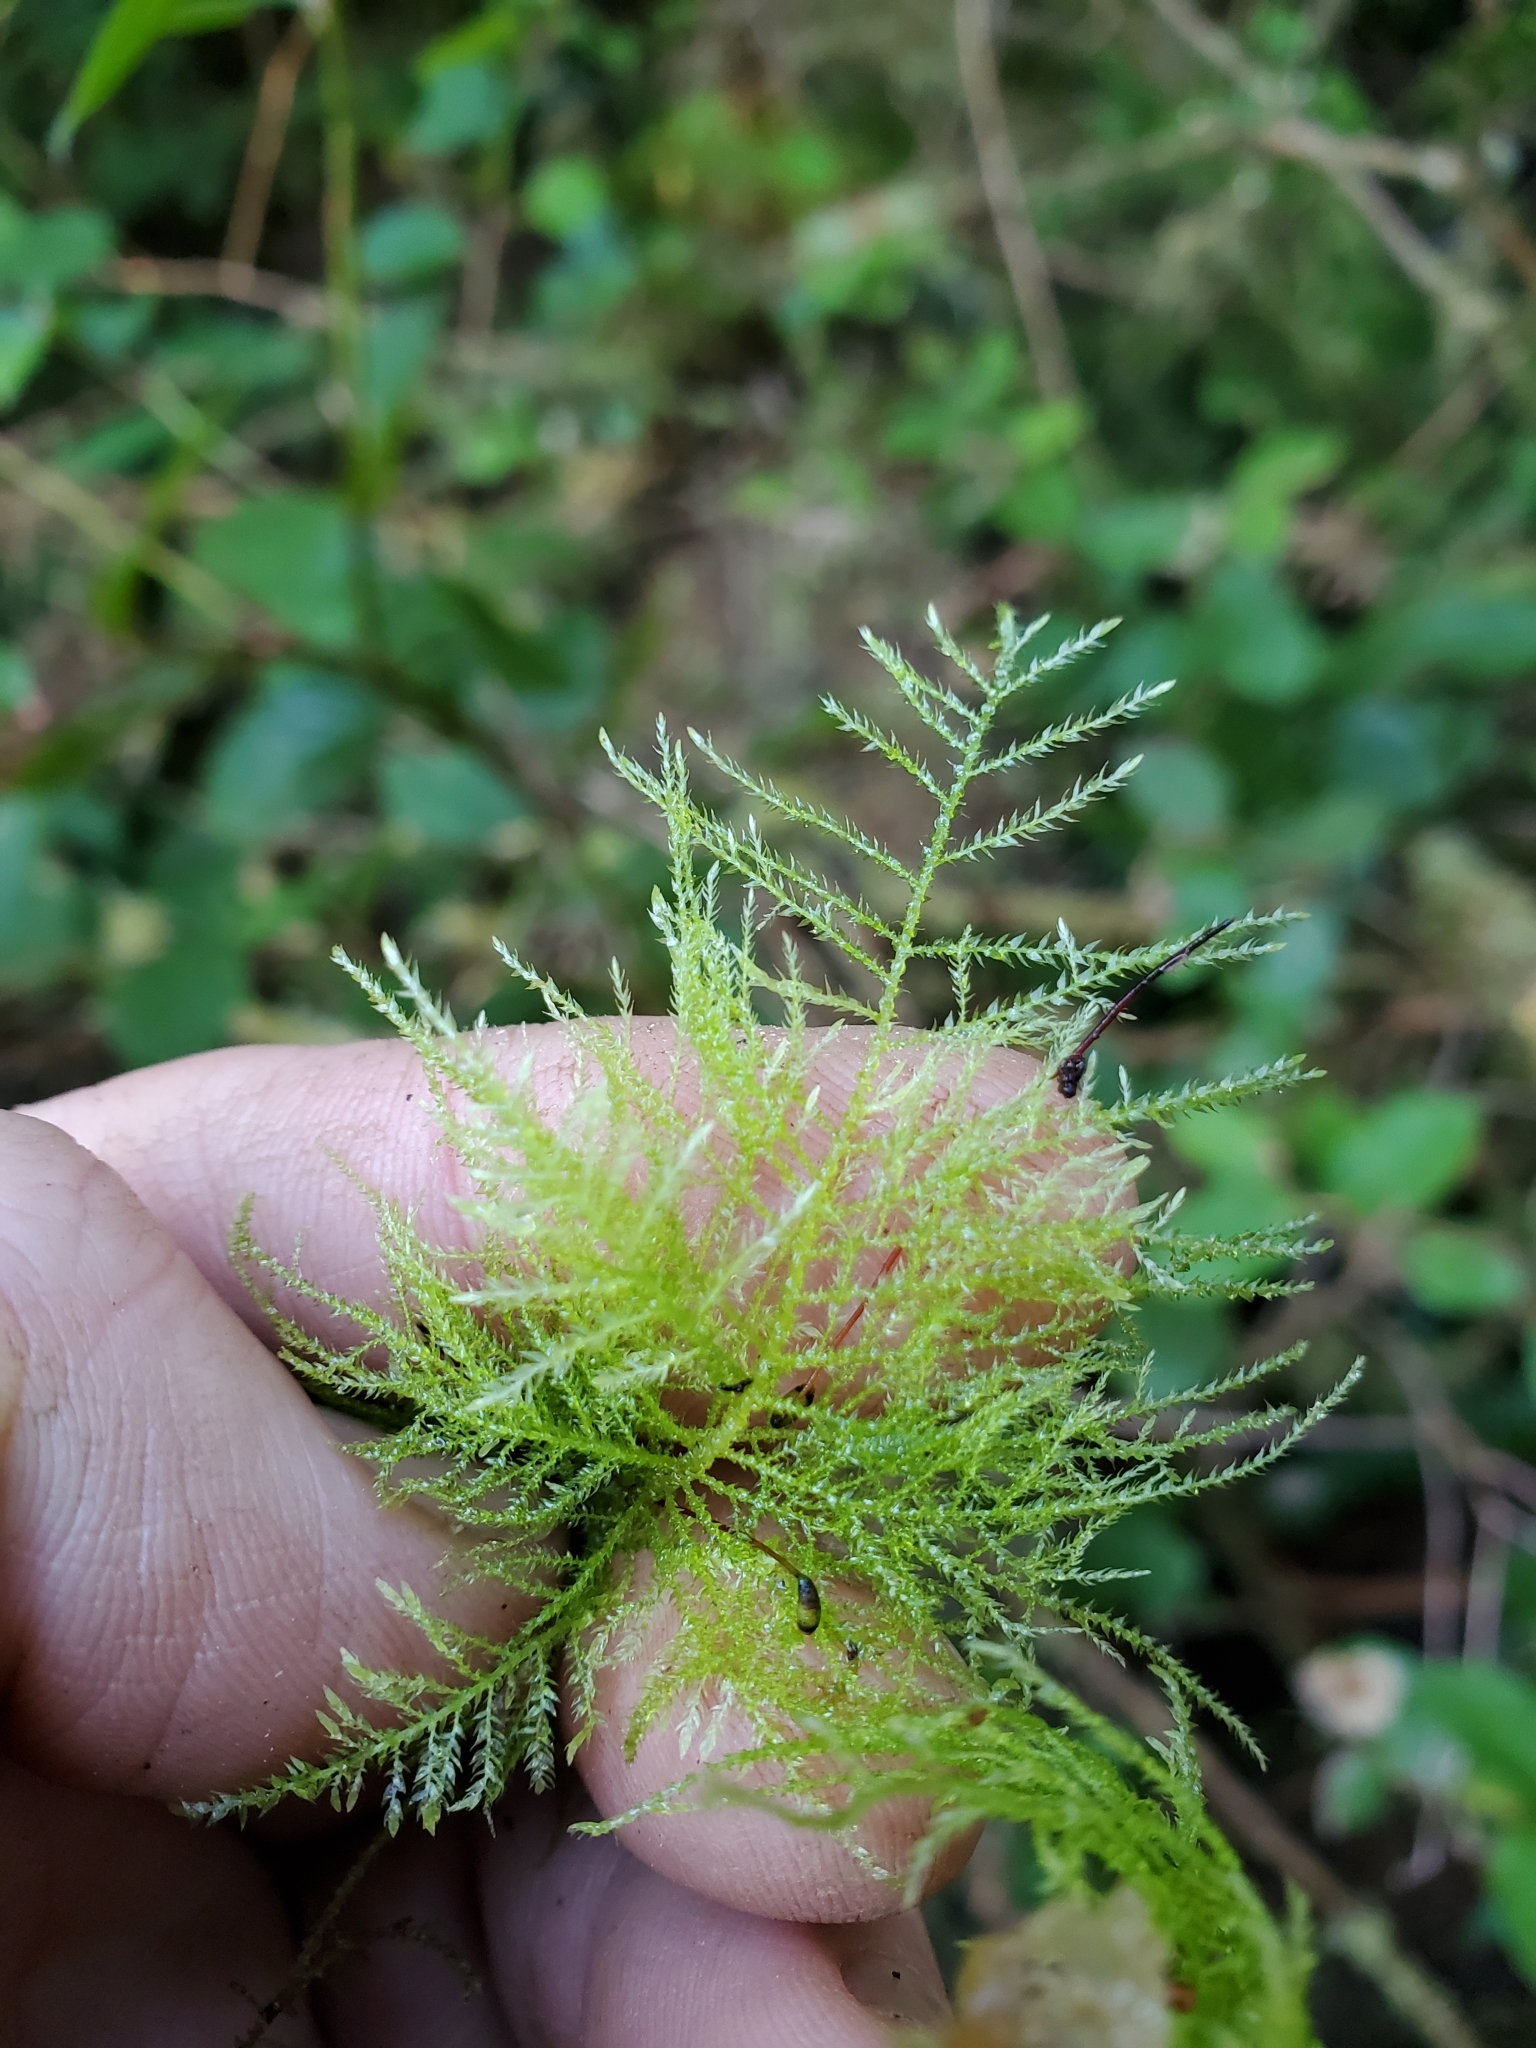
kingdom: Plantae
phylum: Bryophyta
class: Bryopsida
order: Hypnales
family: Brachytheciaceae
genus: Kindbergia
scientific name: Kindbergia praelonga
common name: Slender beaked moss
